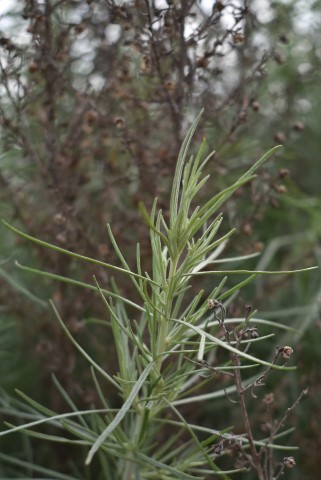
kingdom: Plantae
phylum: Tracheophyta
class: Magnoliopsida
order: Asterales
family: Asteraceae
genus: Artemisia
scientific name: Artemisia californica
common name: California sagebrush
